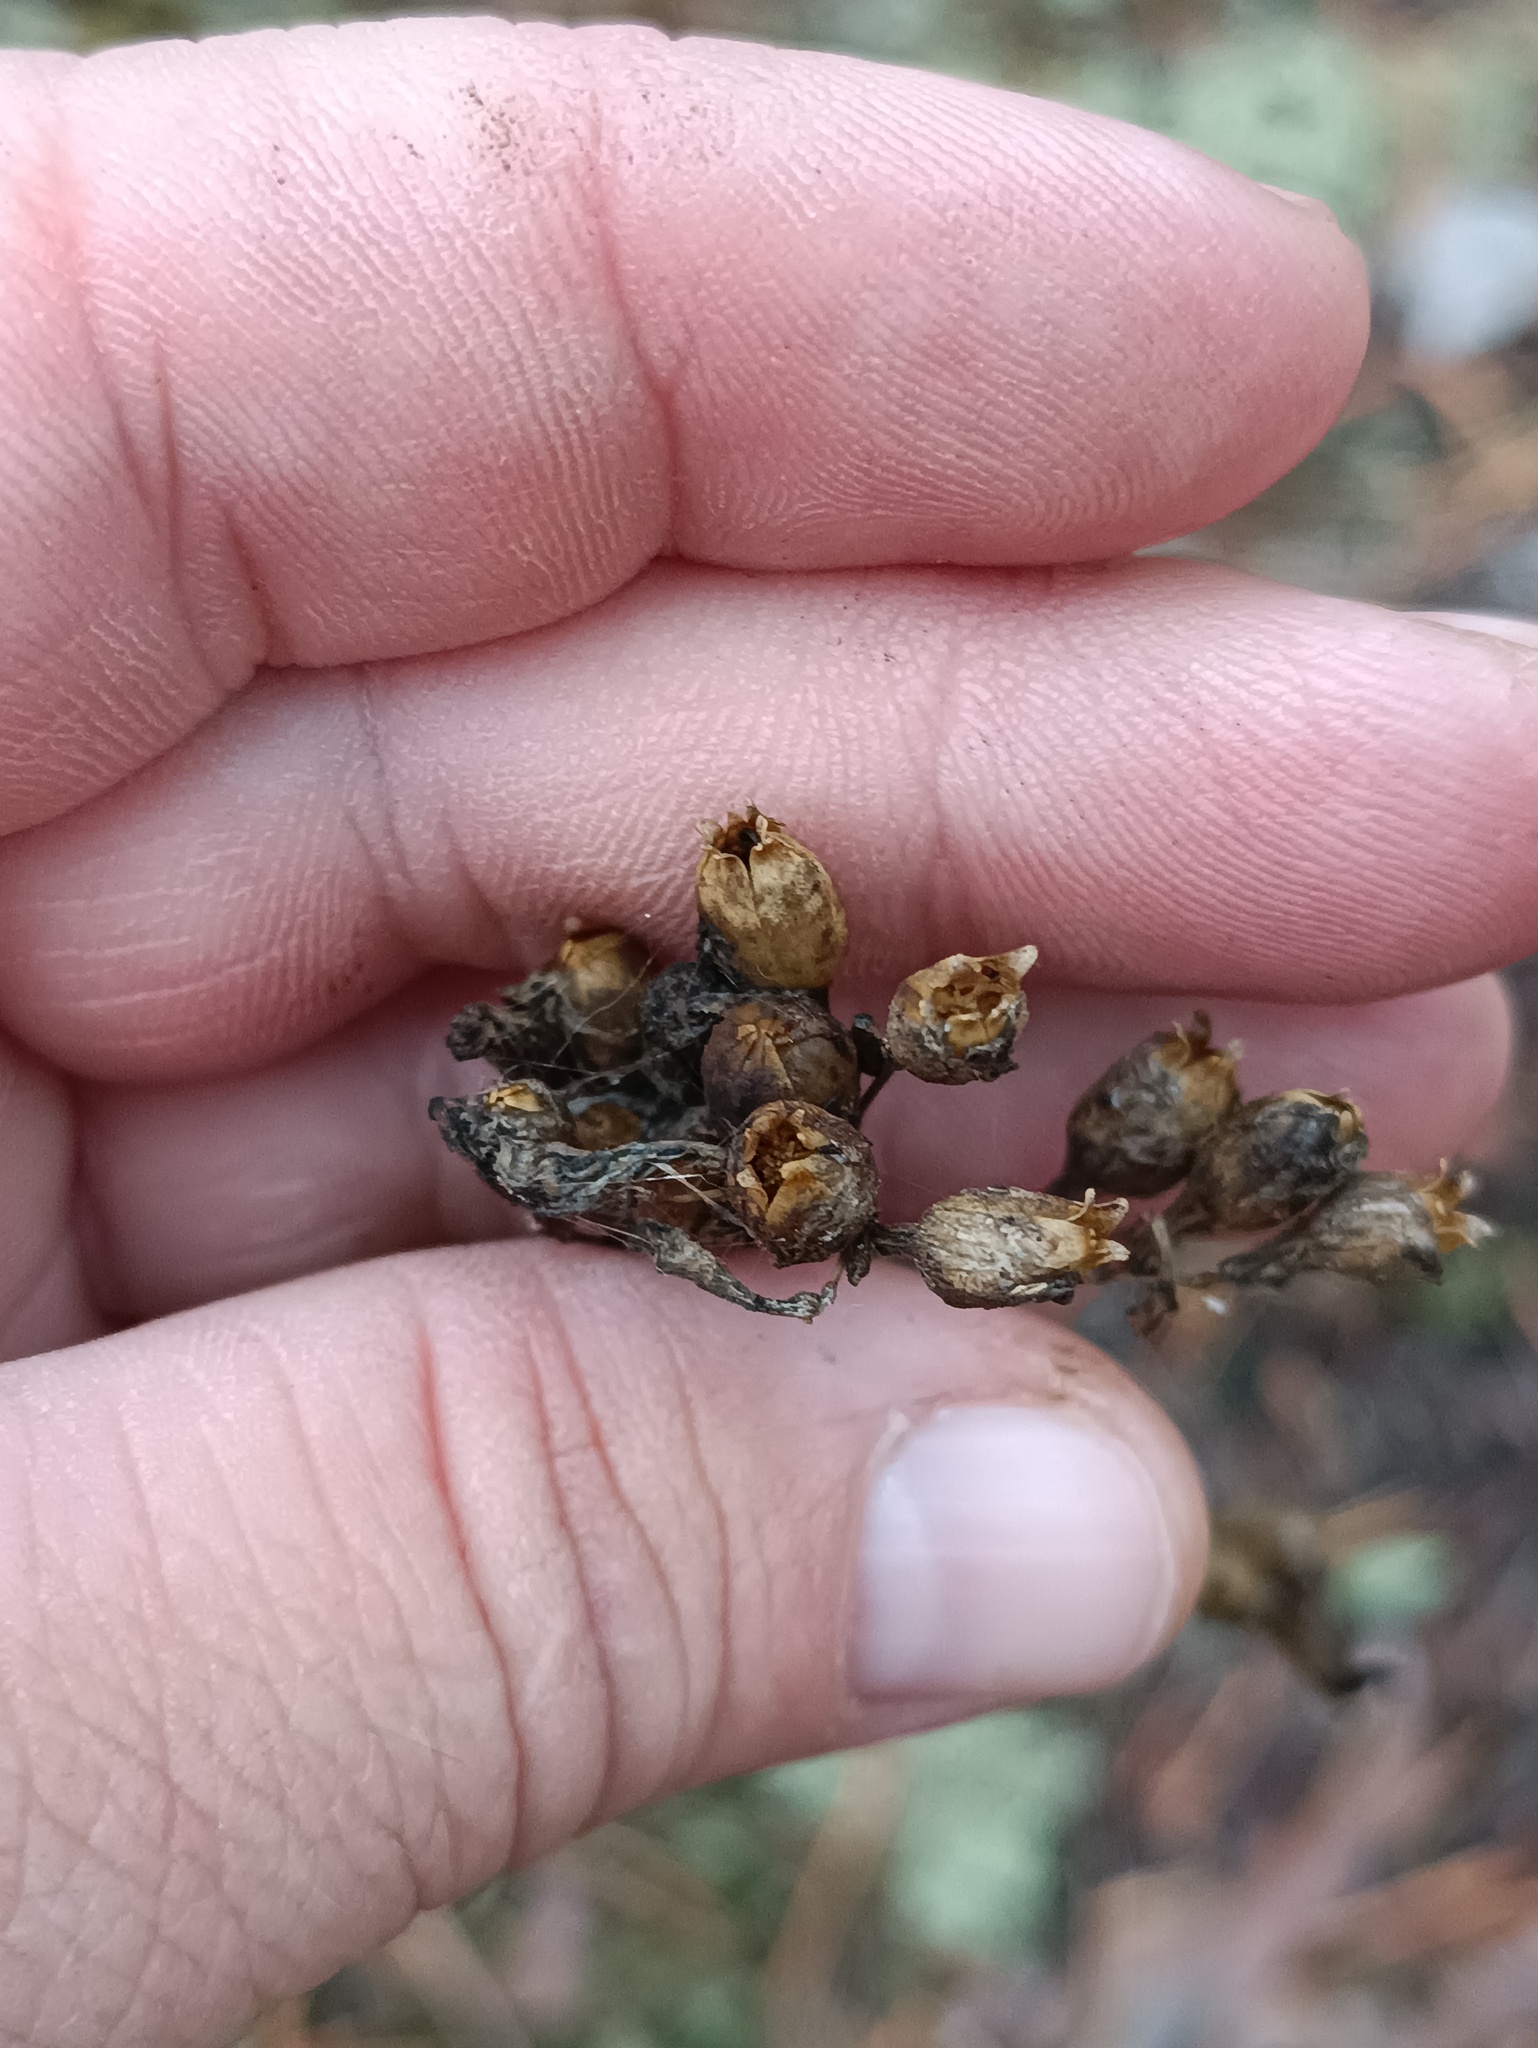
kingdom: Plantae
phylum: Tracheophyta
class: Magnoliopsida
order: Caryophyllales
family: Caryophyllaceae
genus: Viscaria
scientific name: Viscaria vulgaris
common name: Clammy campion
